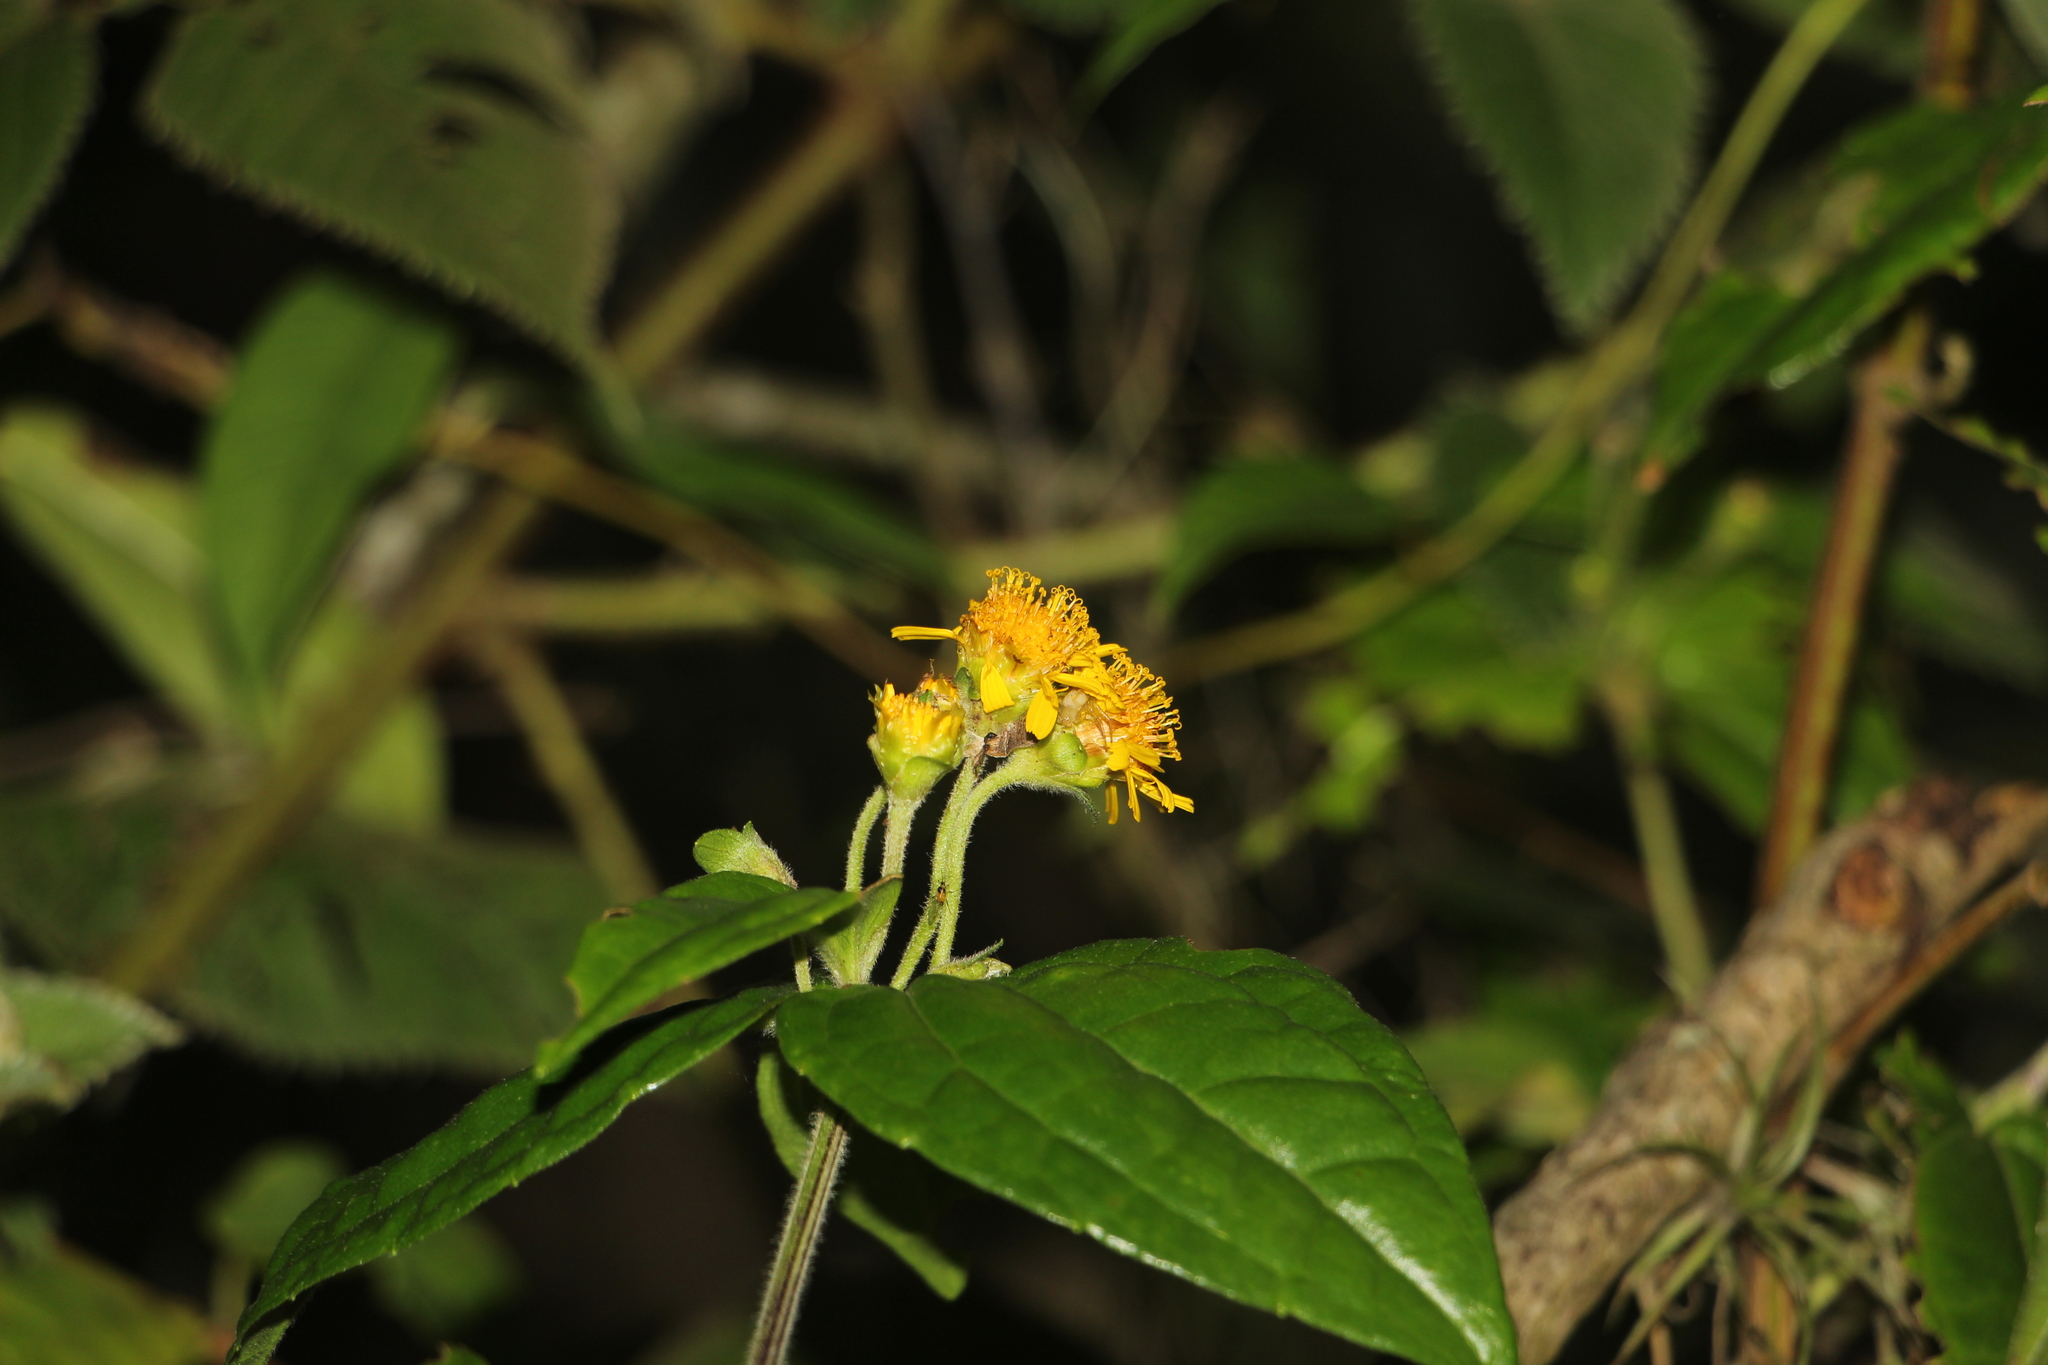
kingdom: Plantae
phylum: Tracheophyta
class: Magnoliopsida
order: Asterales
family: Asteraceae
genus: Calea
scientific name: Calea bucaramangensis
